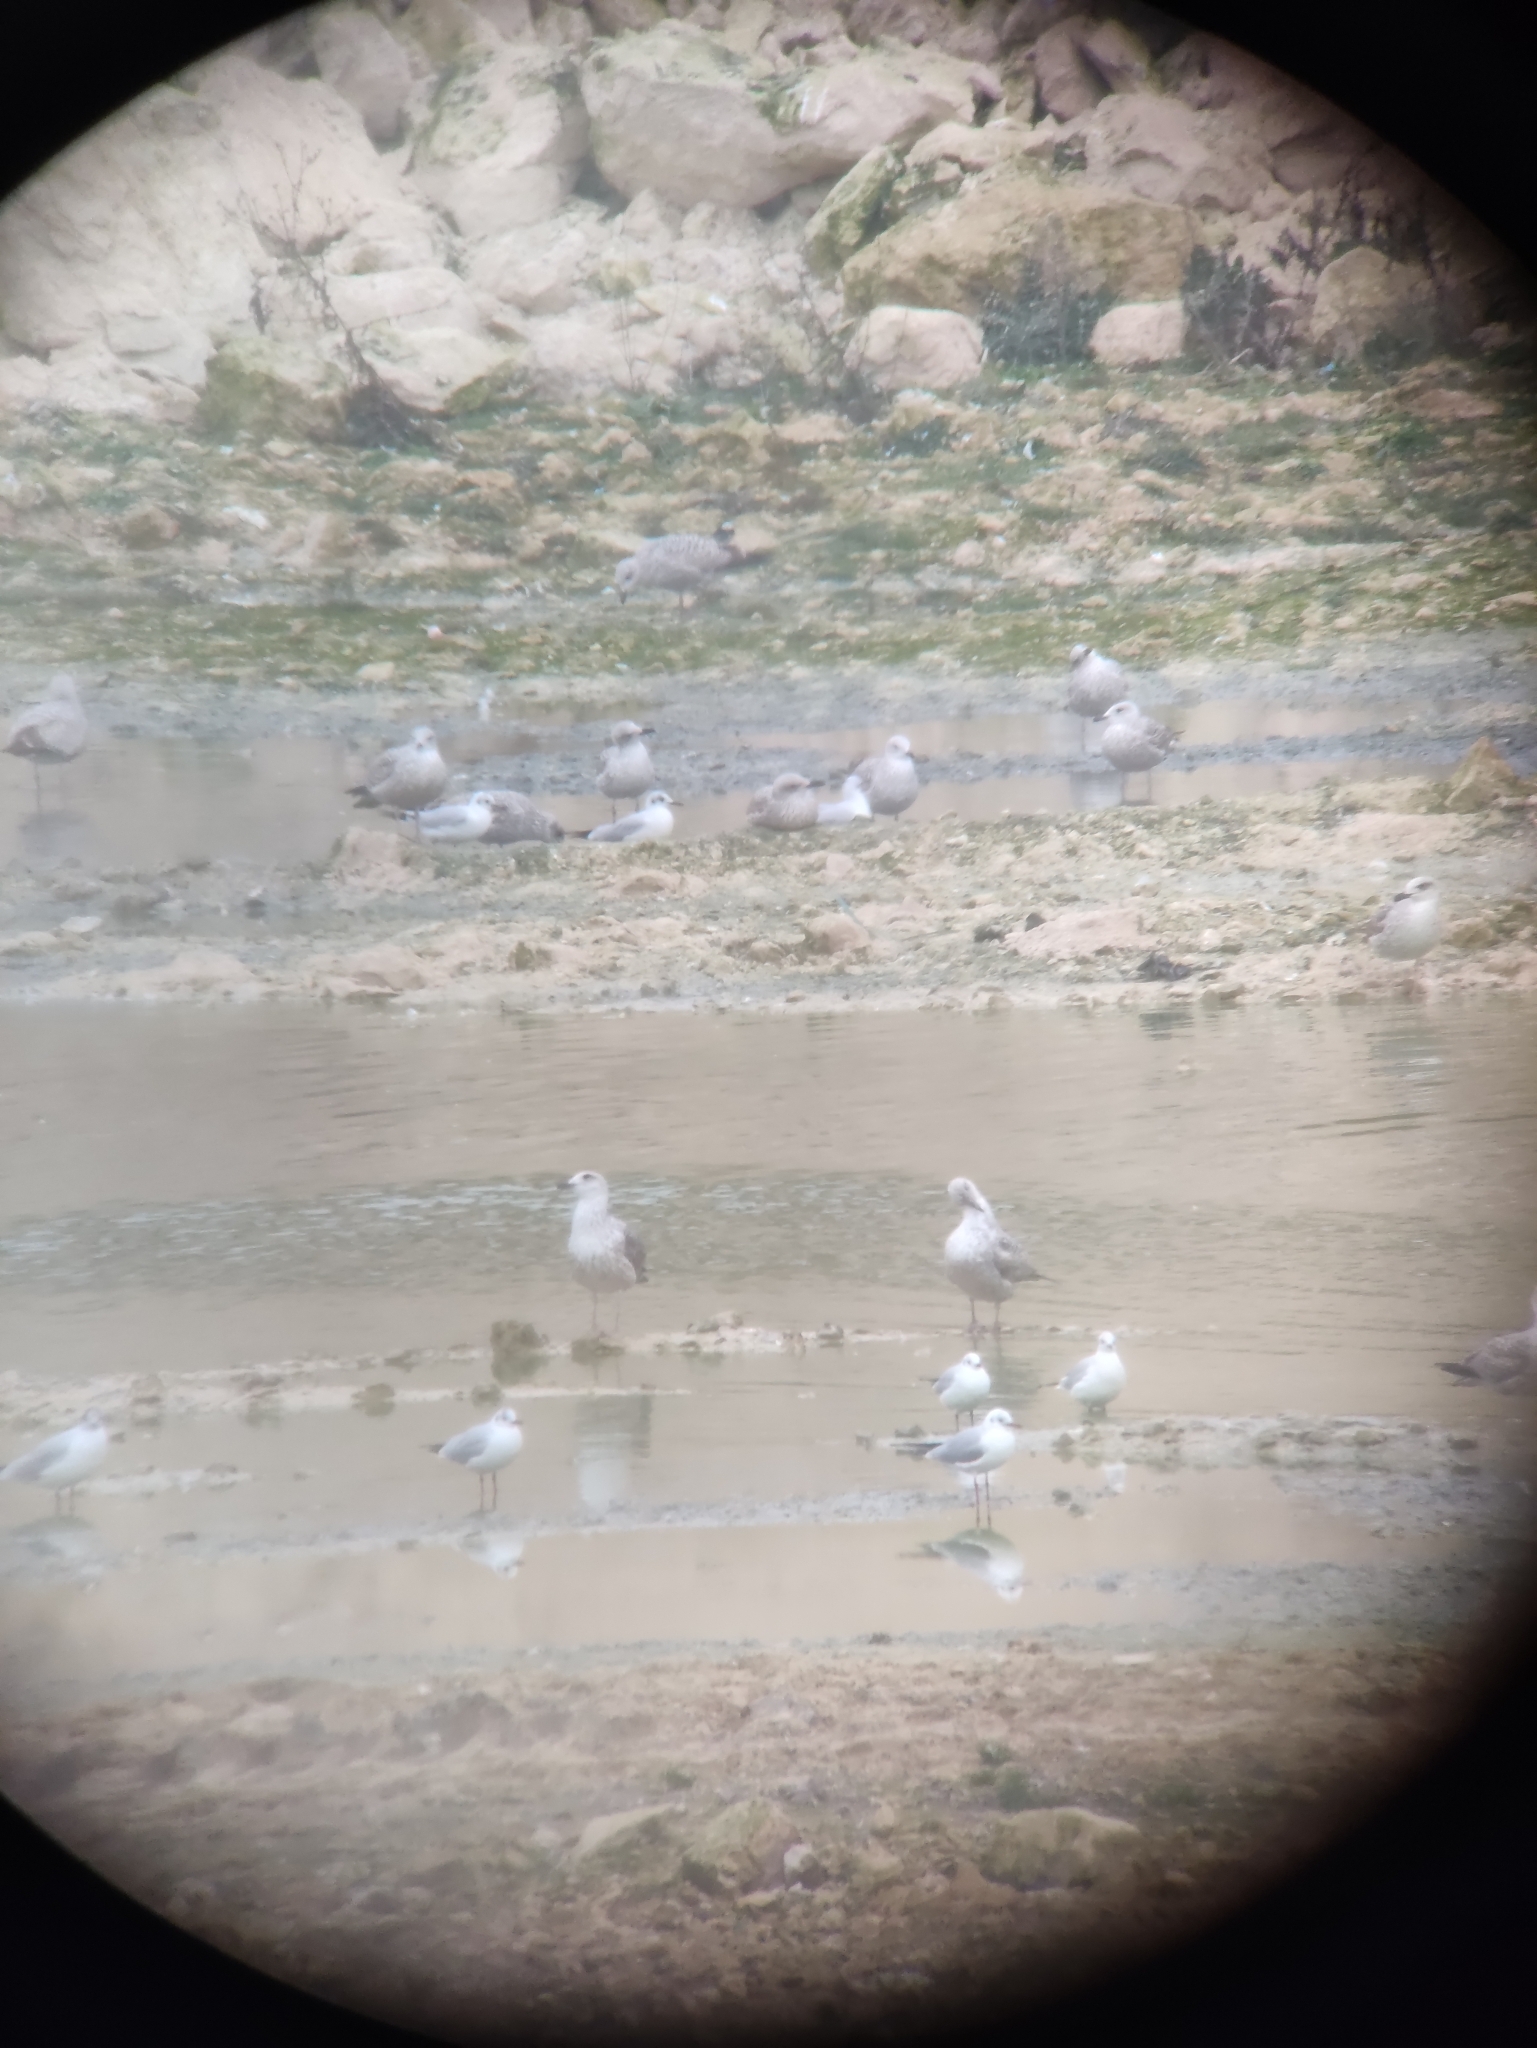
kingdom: Animalia
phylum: Chordata
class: Aves
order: Charadriiformes
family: Laridae
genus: Chroicocephalus
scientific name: Chroicocephalus ridibundus
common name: Black-headed gull
